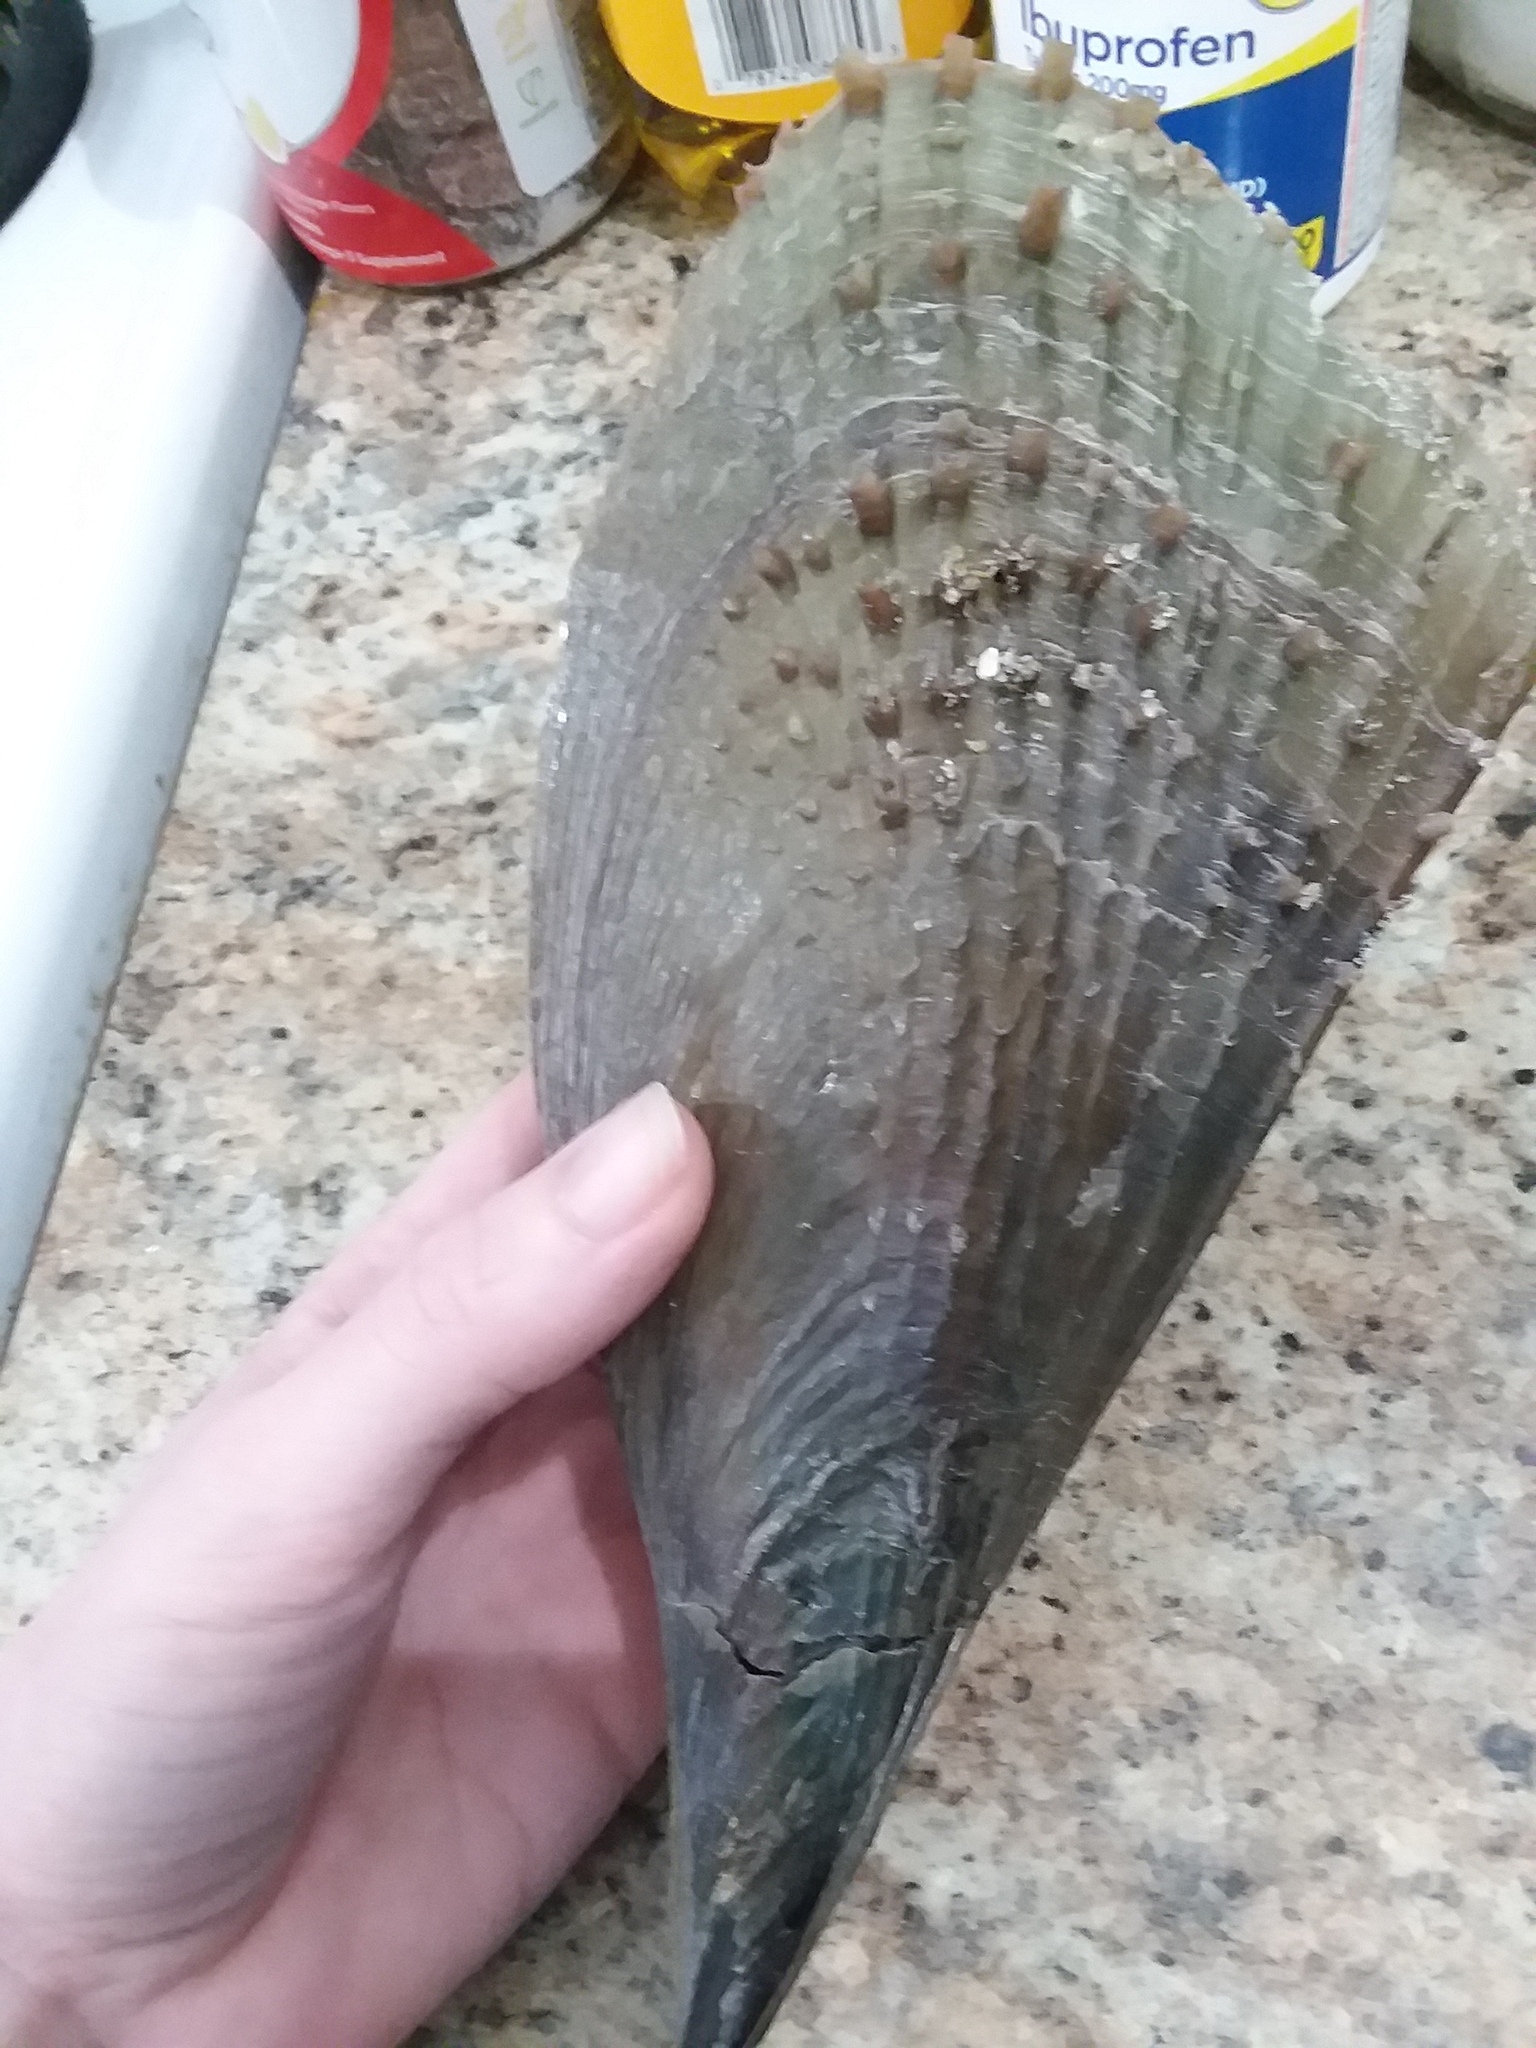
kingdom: Animalia
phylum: Mollusca
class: Bivalvia
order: Ostreida
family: Pinnidae
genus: Atrina
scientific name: Atrina rigida
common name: Stiff penshell
